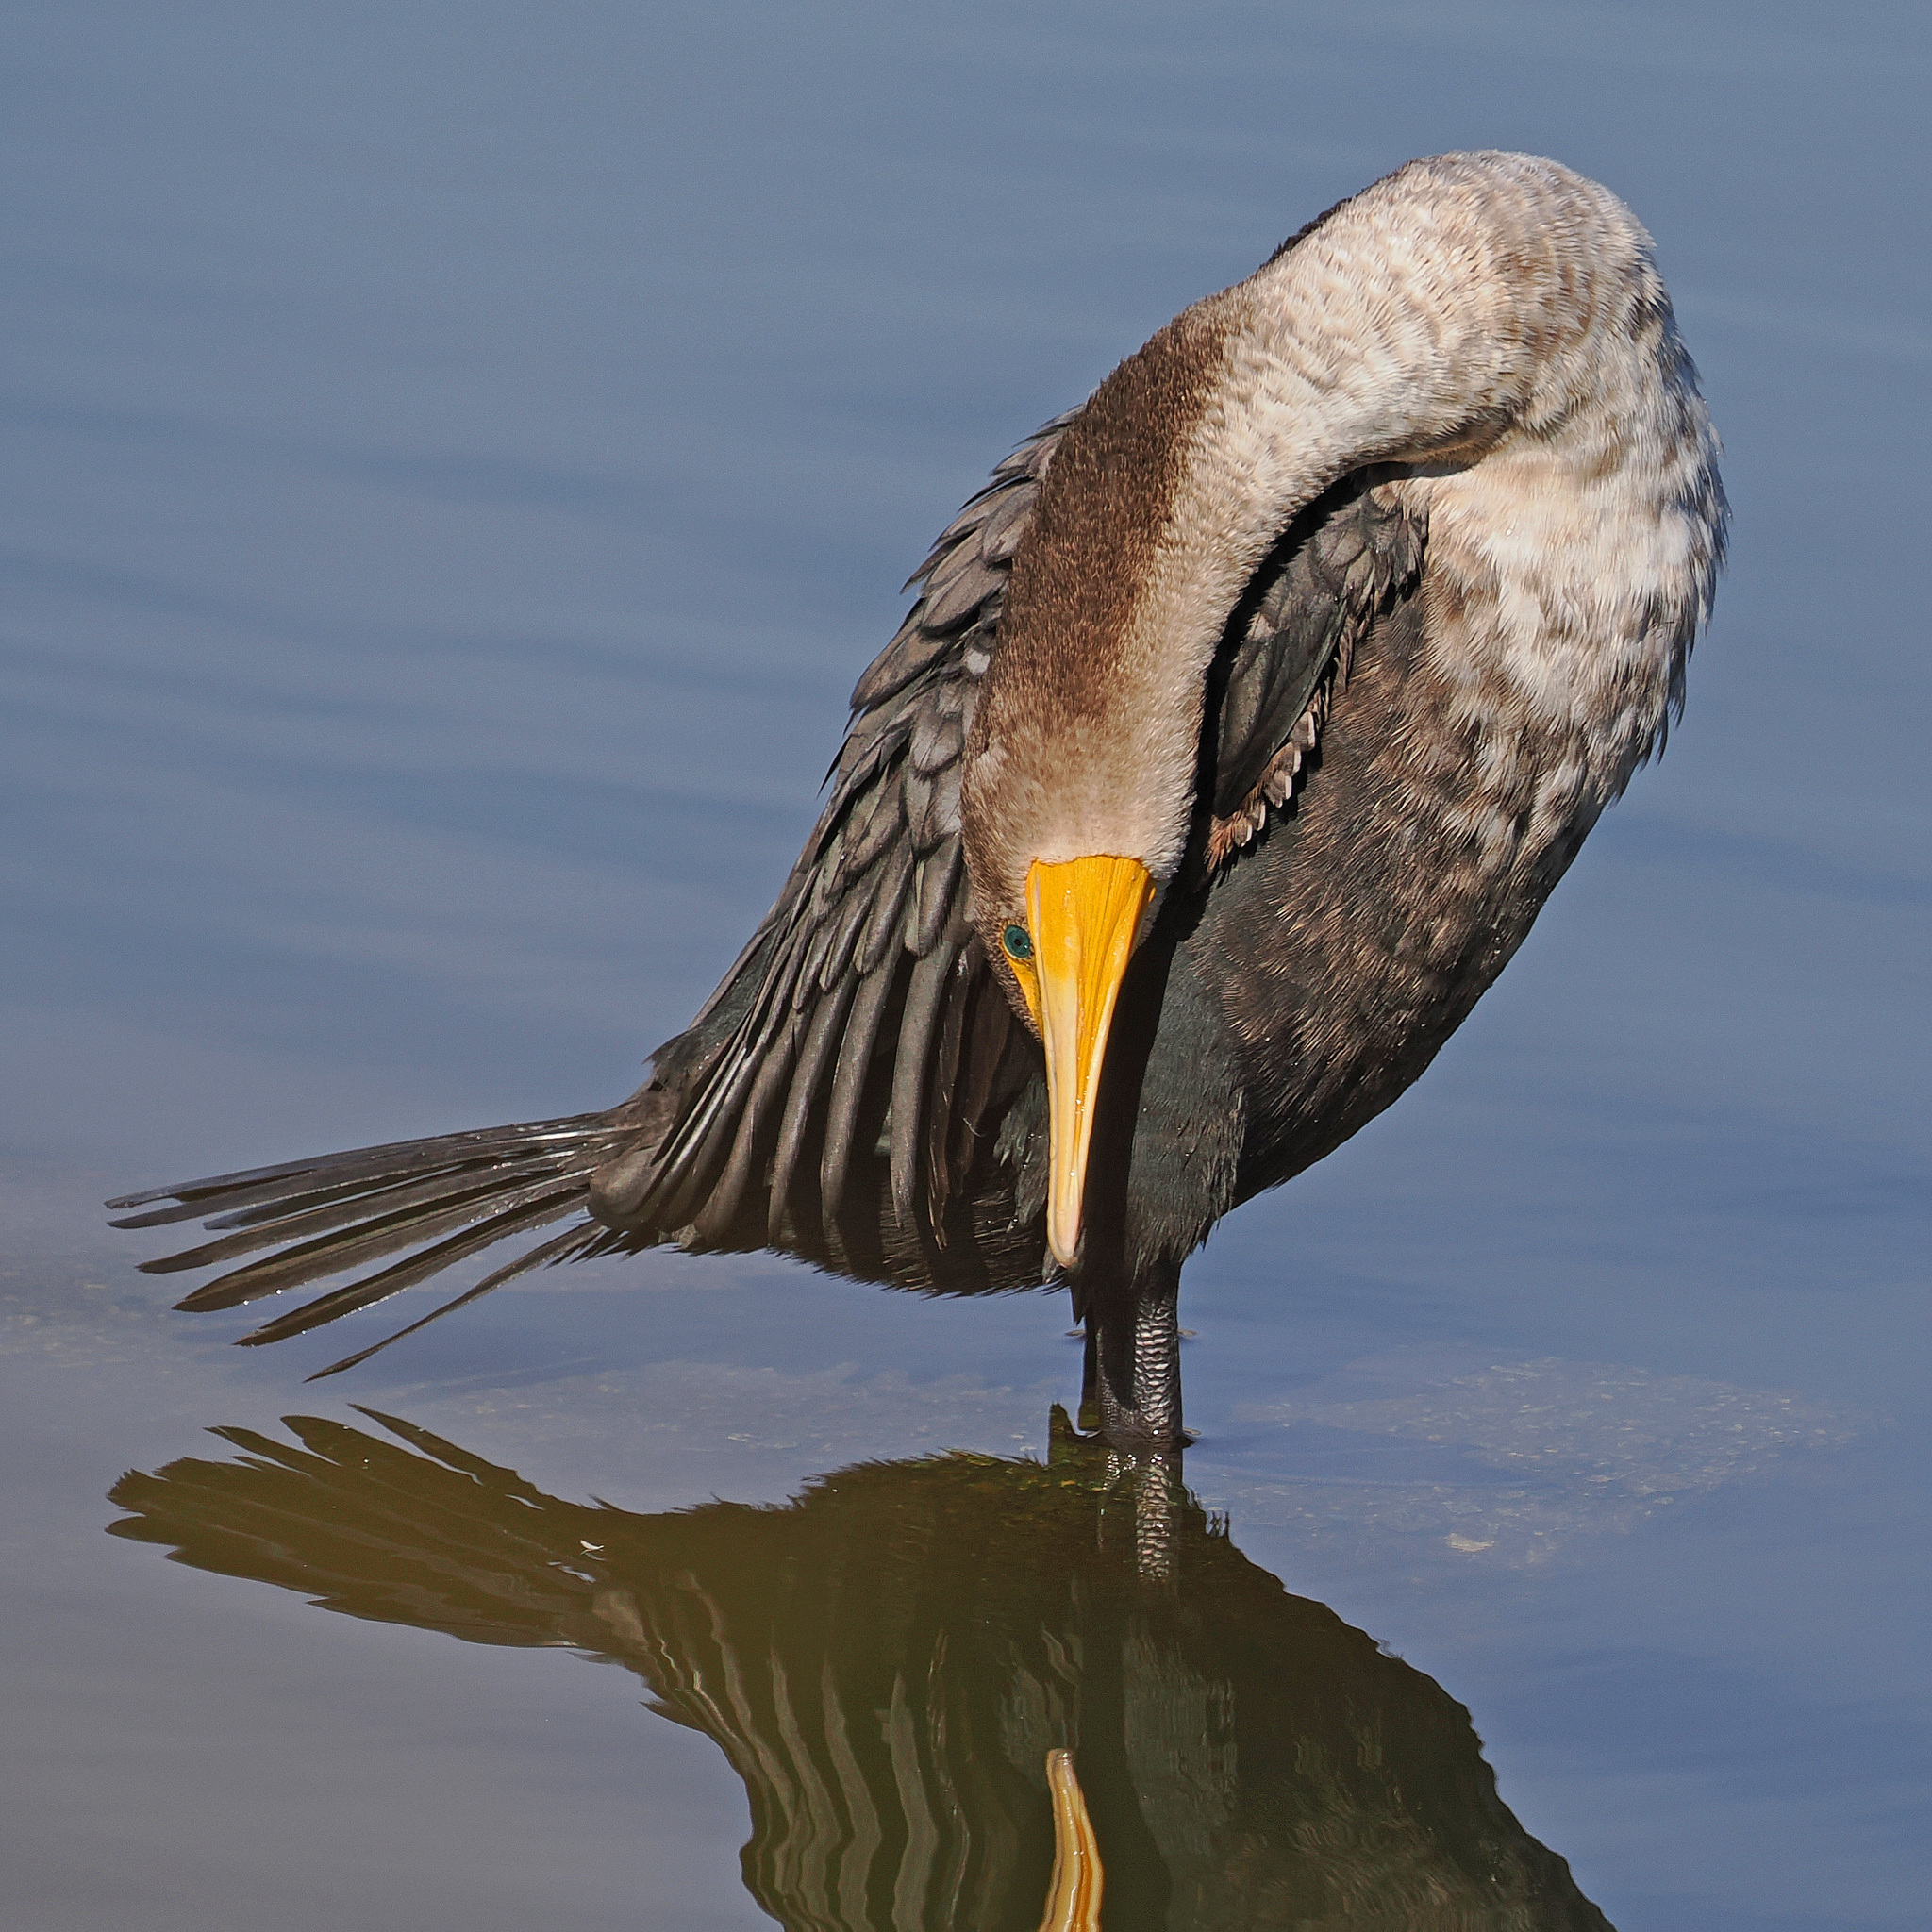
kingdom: Animalia
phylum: Chordata
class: Aves
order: Suliformes
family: Phalacrocoracidae
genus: Phalacrocorax
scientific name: Phalacrocorax auritus
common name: Double-crested cormorant
